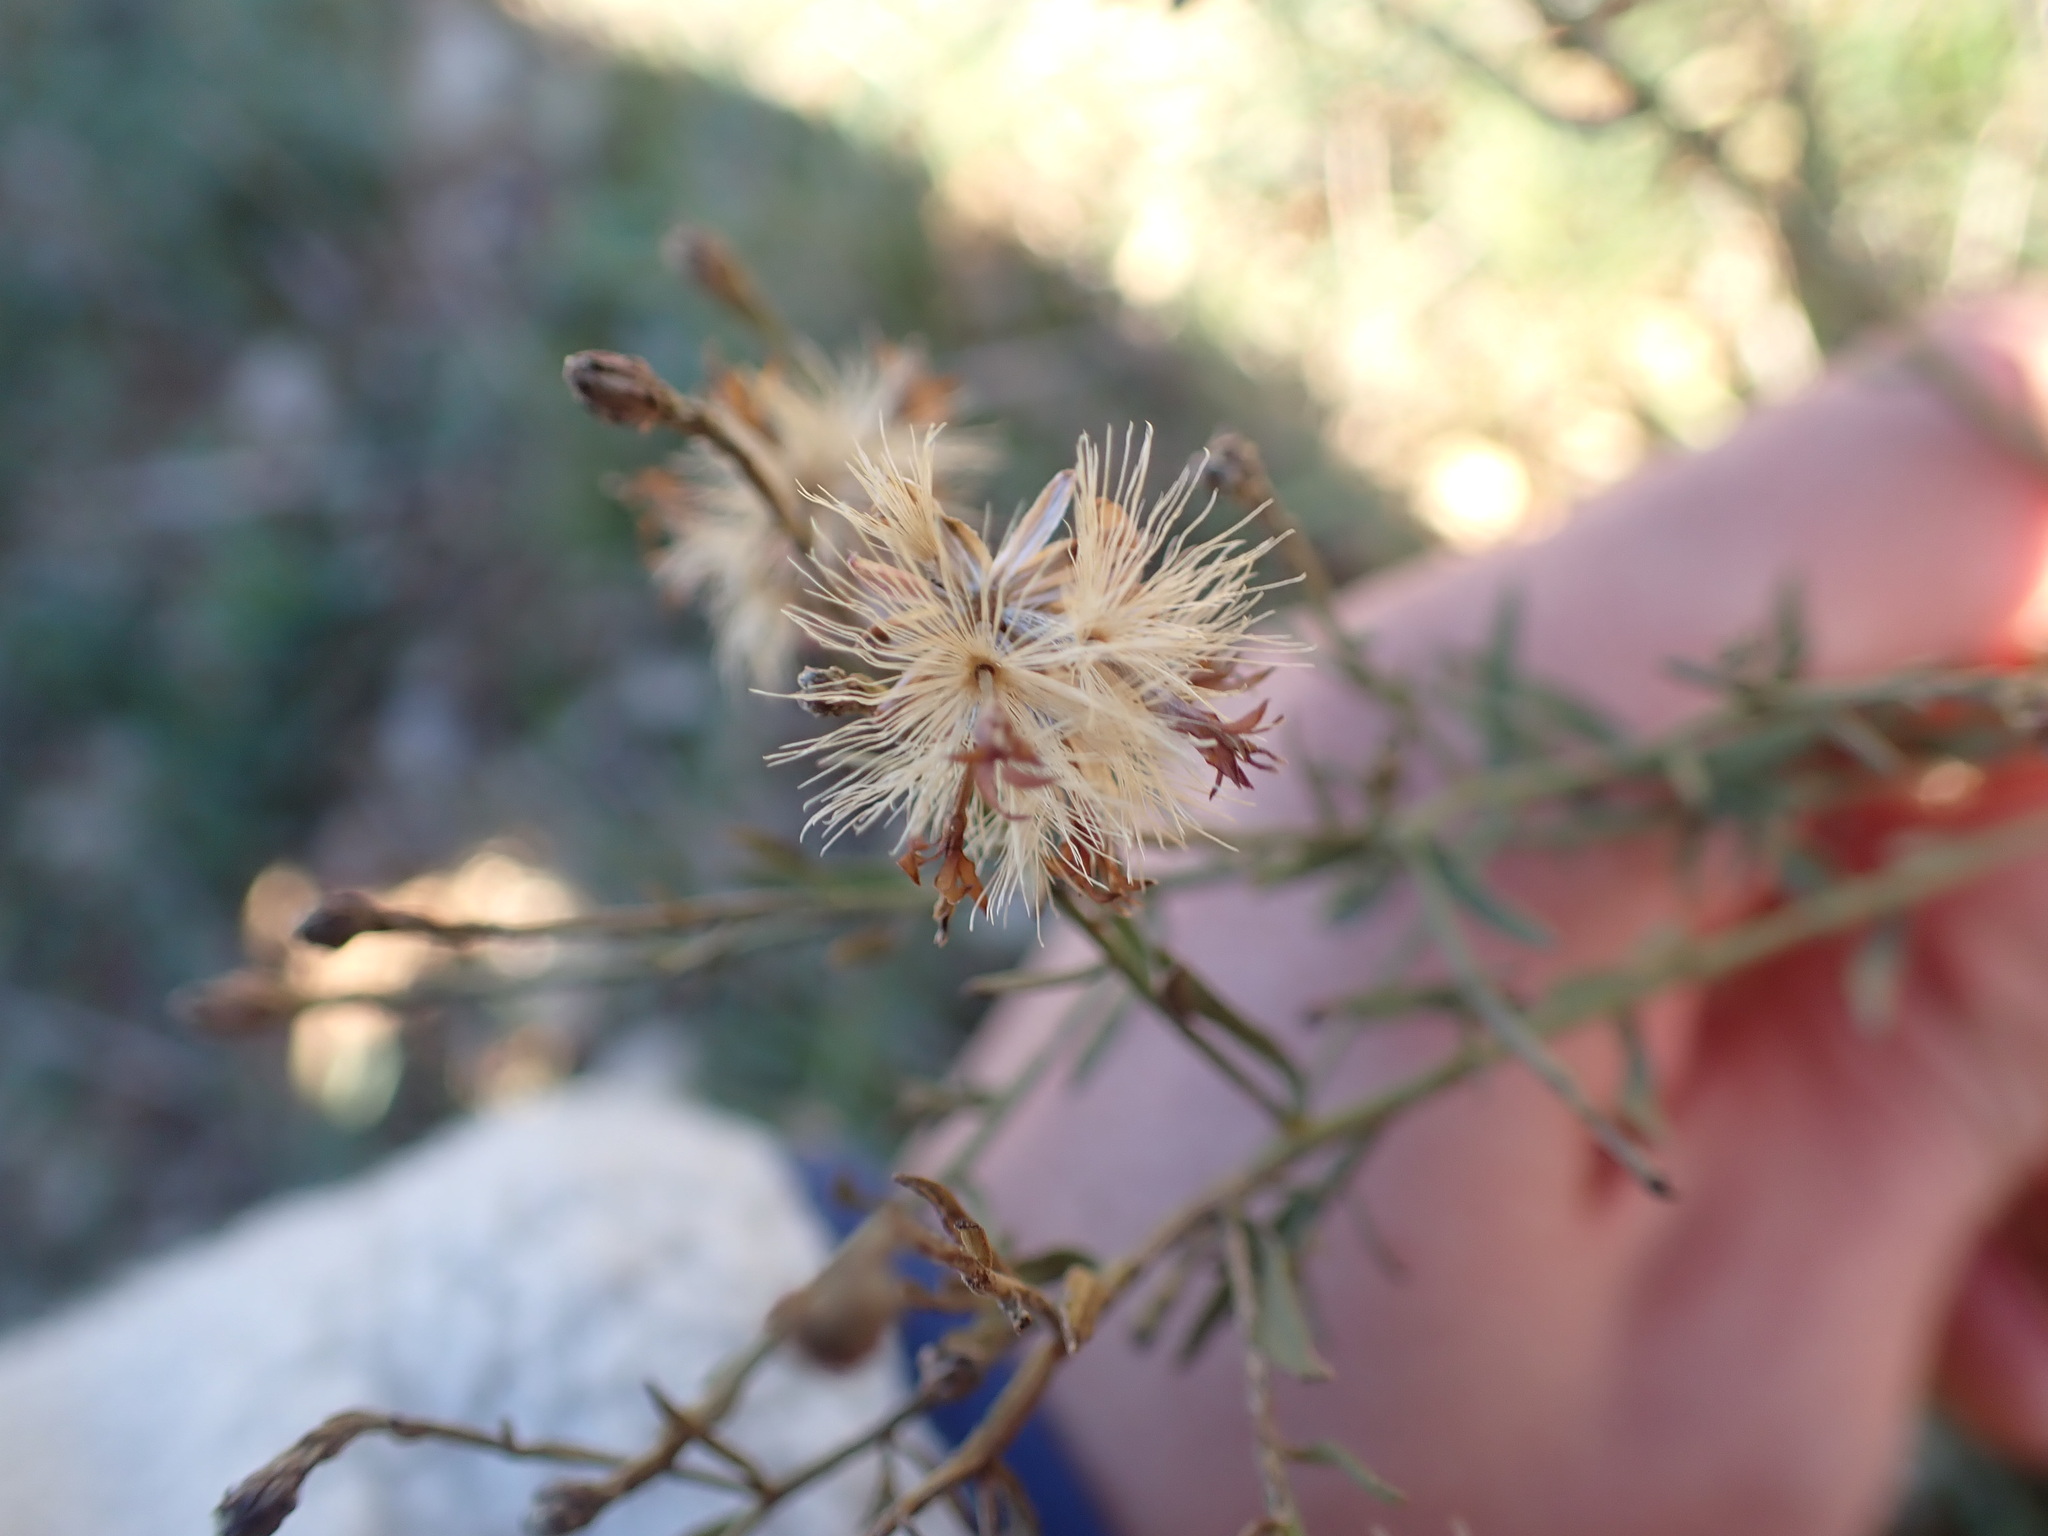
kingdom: Plantae
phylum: Tracheophyta
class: Magnoliopsida
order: Asterales
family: Asteraceae
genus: Galatella
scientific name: Galatella sedifolia
